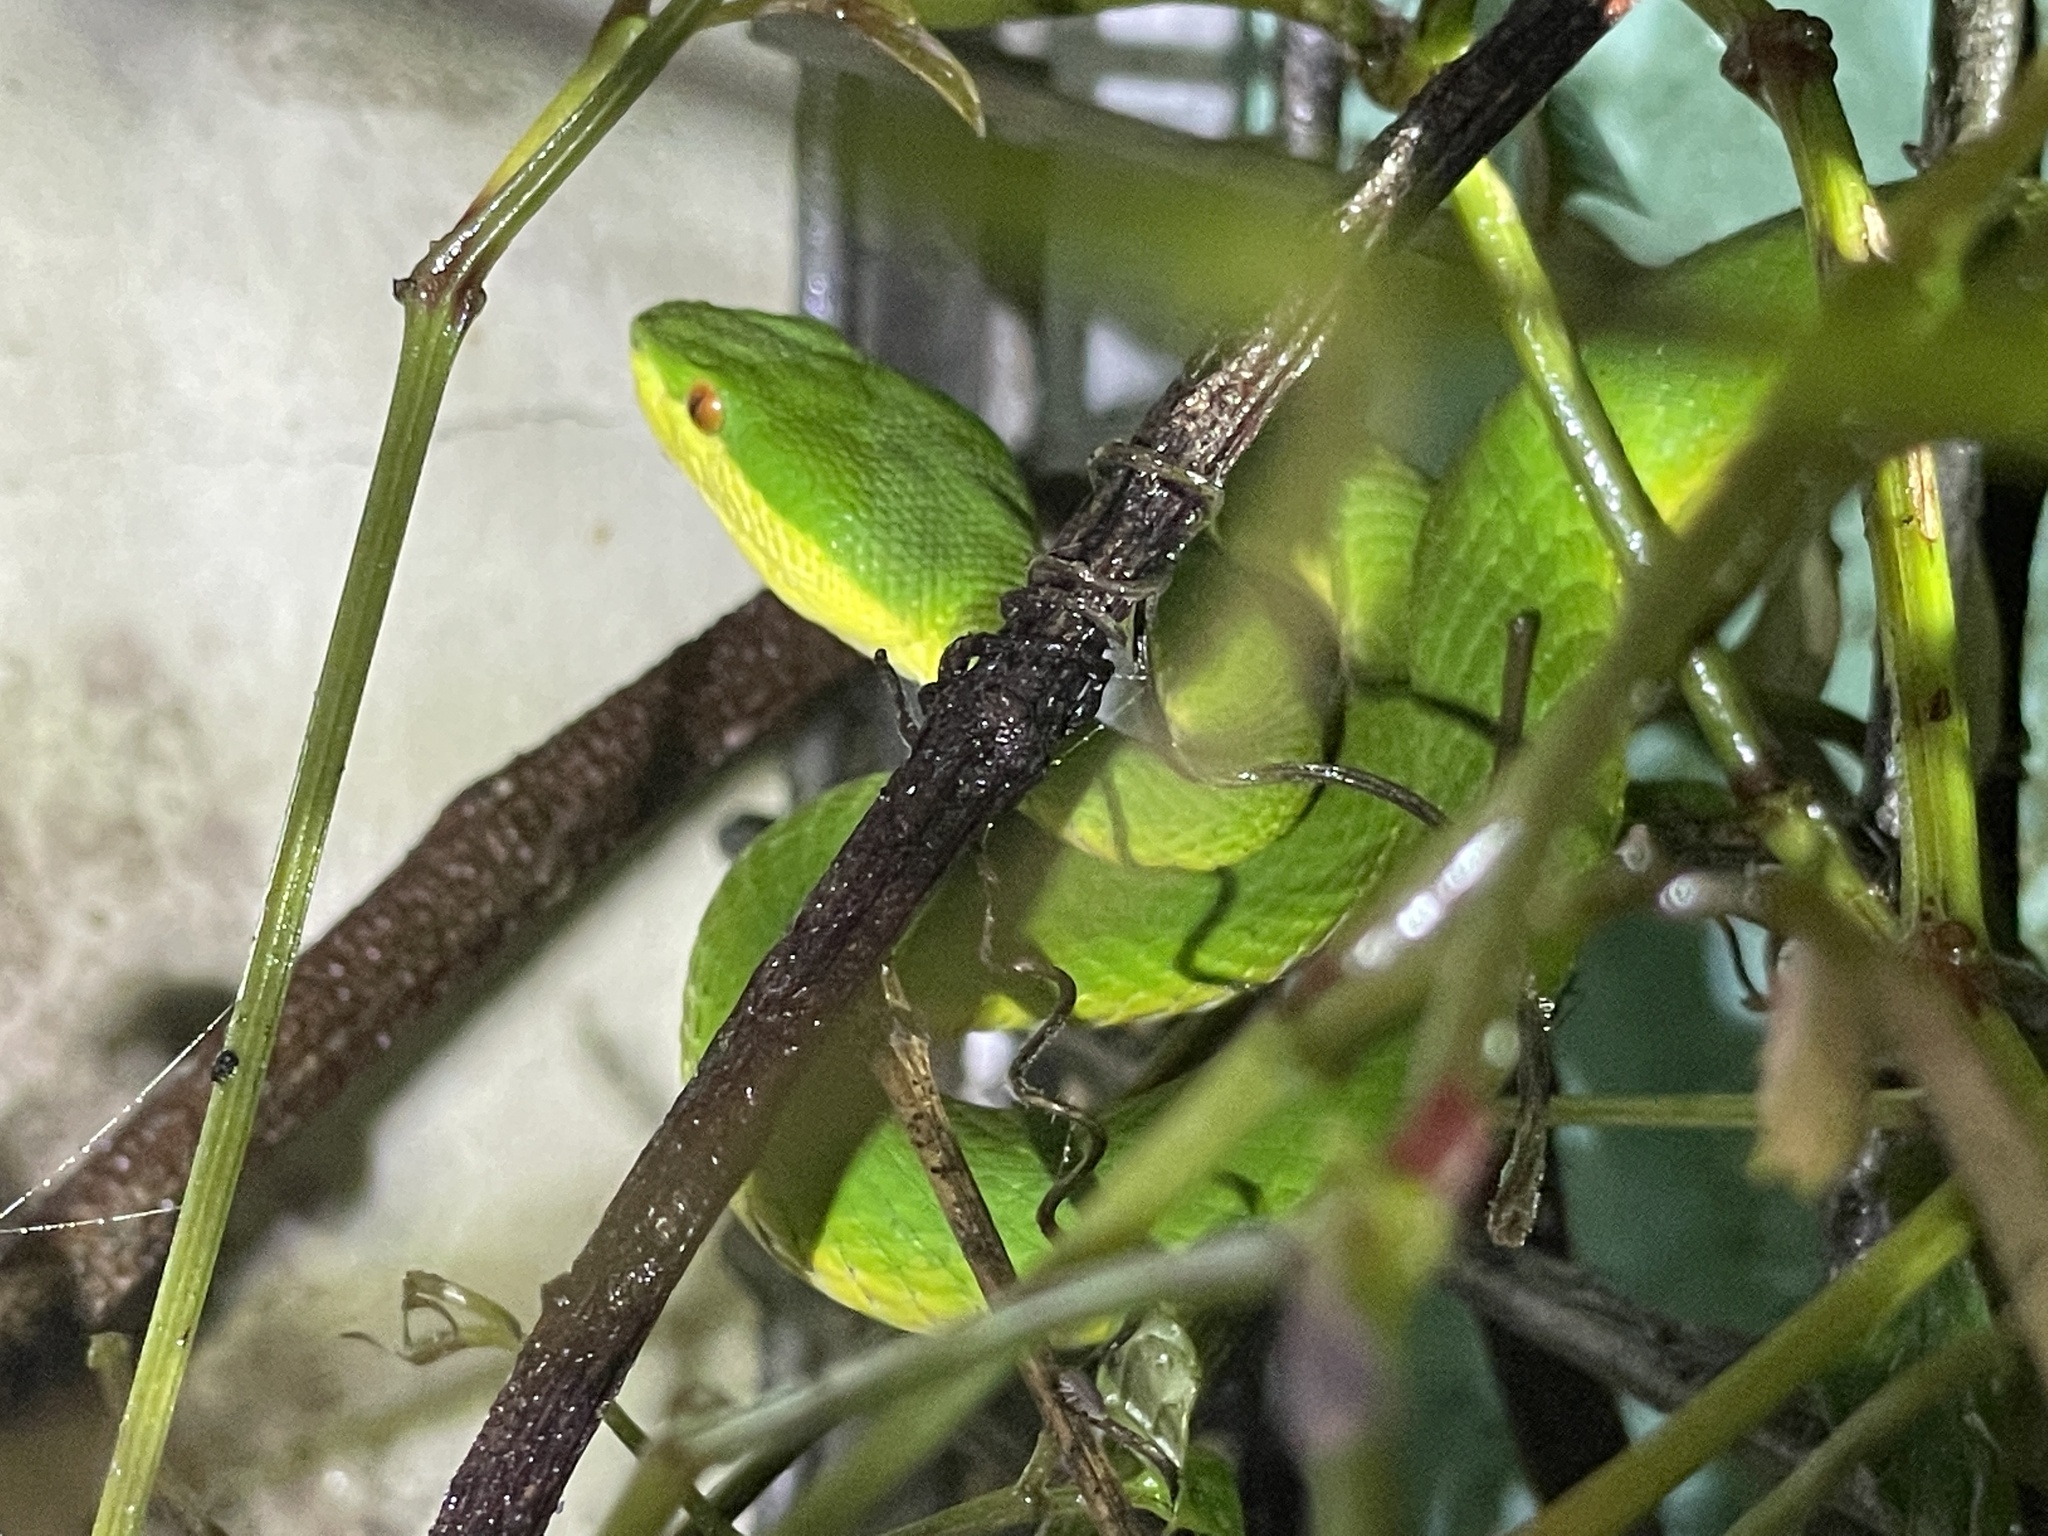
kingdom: Animalia
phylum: Chordata
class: Squamata
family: Viperidae
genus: Trimeresurus
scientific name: Trimeresurus albolabris
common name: White-lipped pitviper
